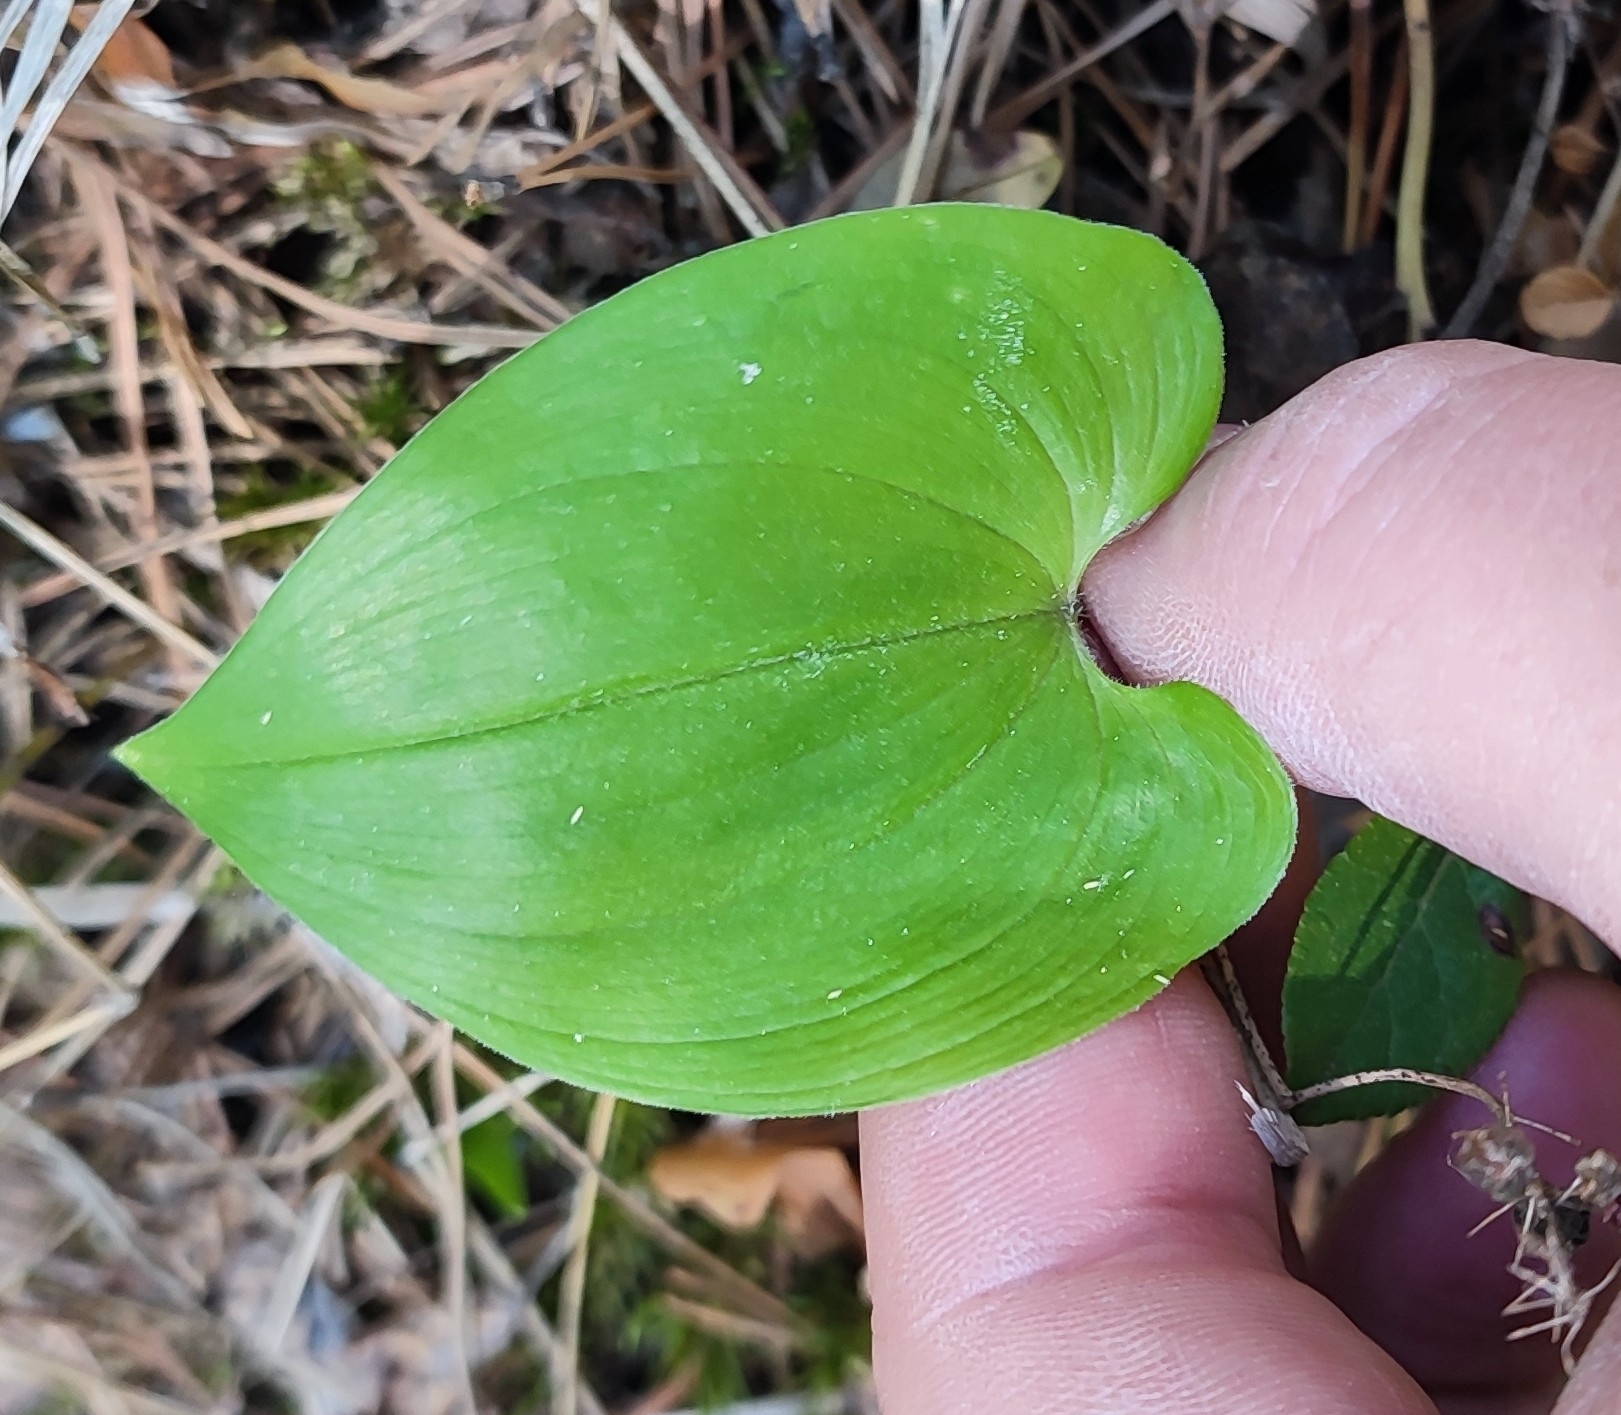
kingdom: Plantae
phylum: Tracheophyta
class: Liliopsida
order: Asparagales
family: Asparagaceae
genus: Maianthemum
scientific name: Maianthemum bifolium
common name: May lily
